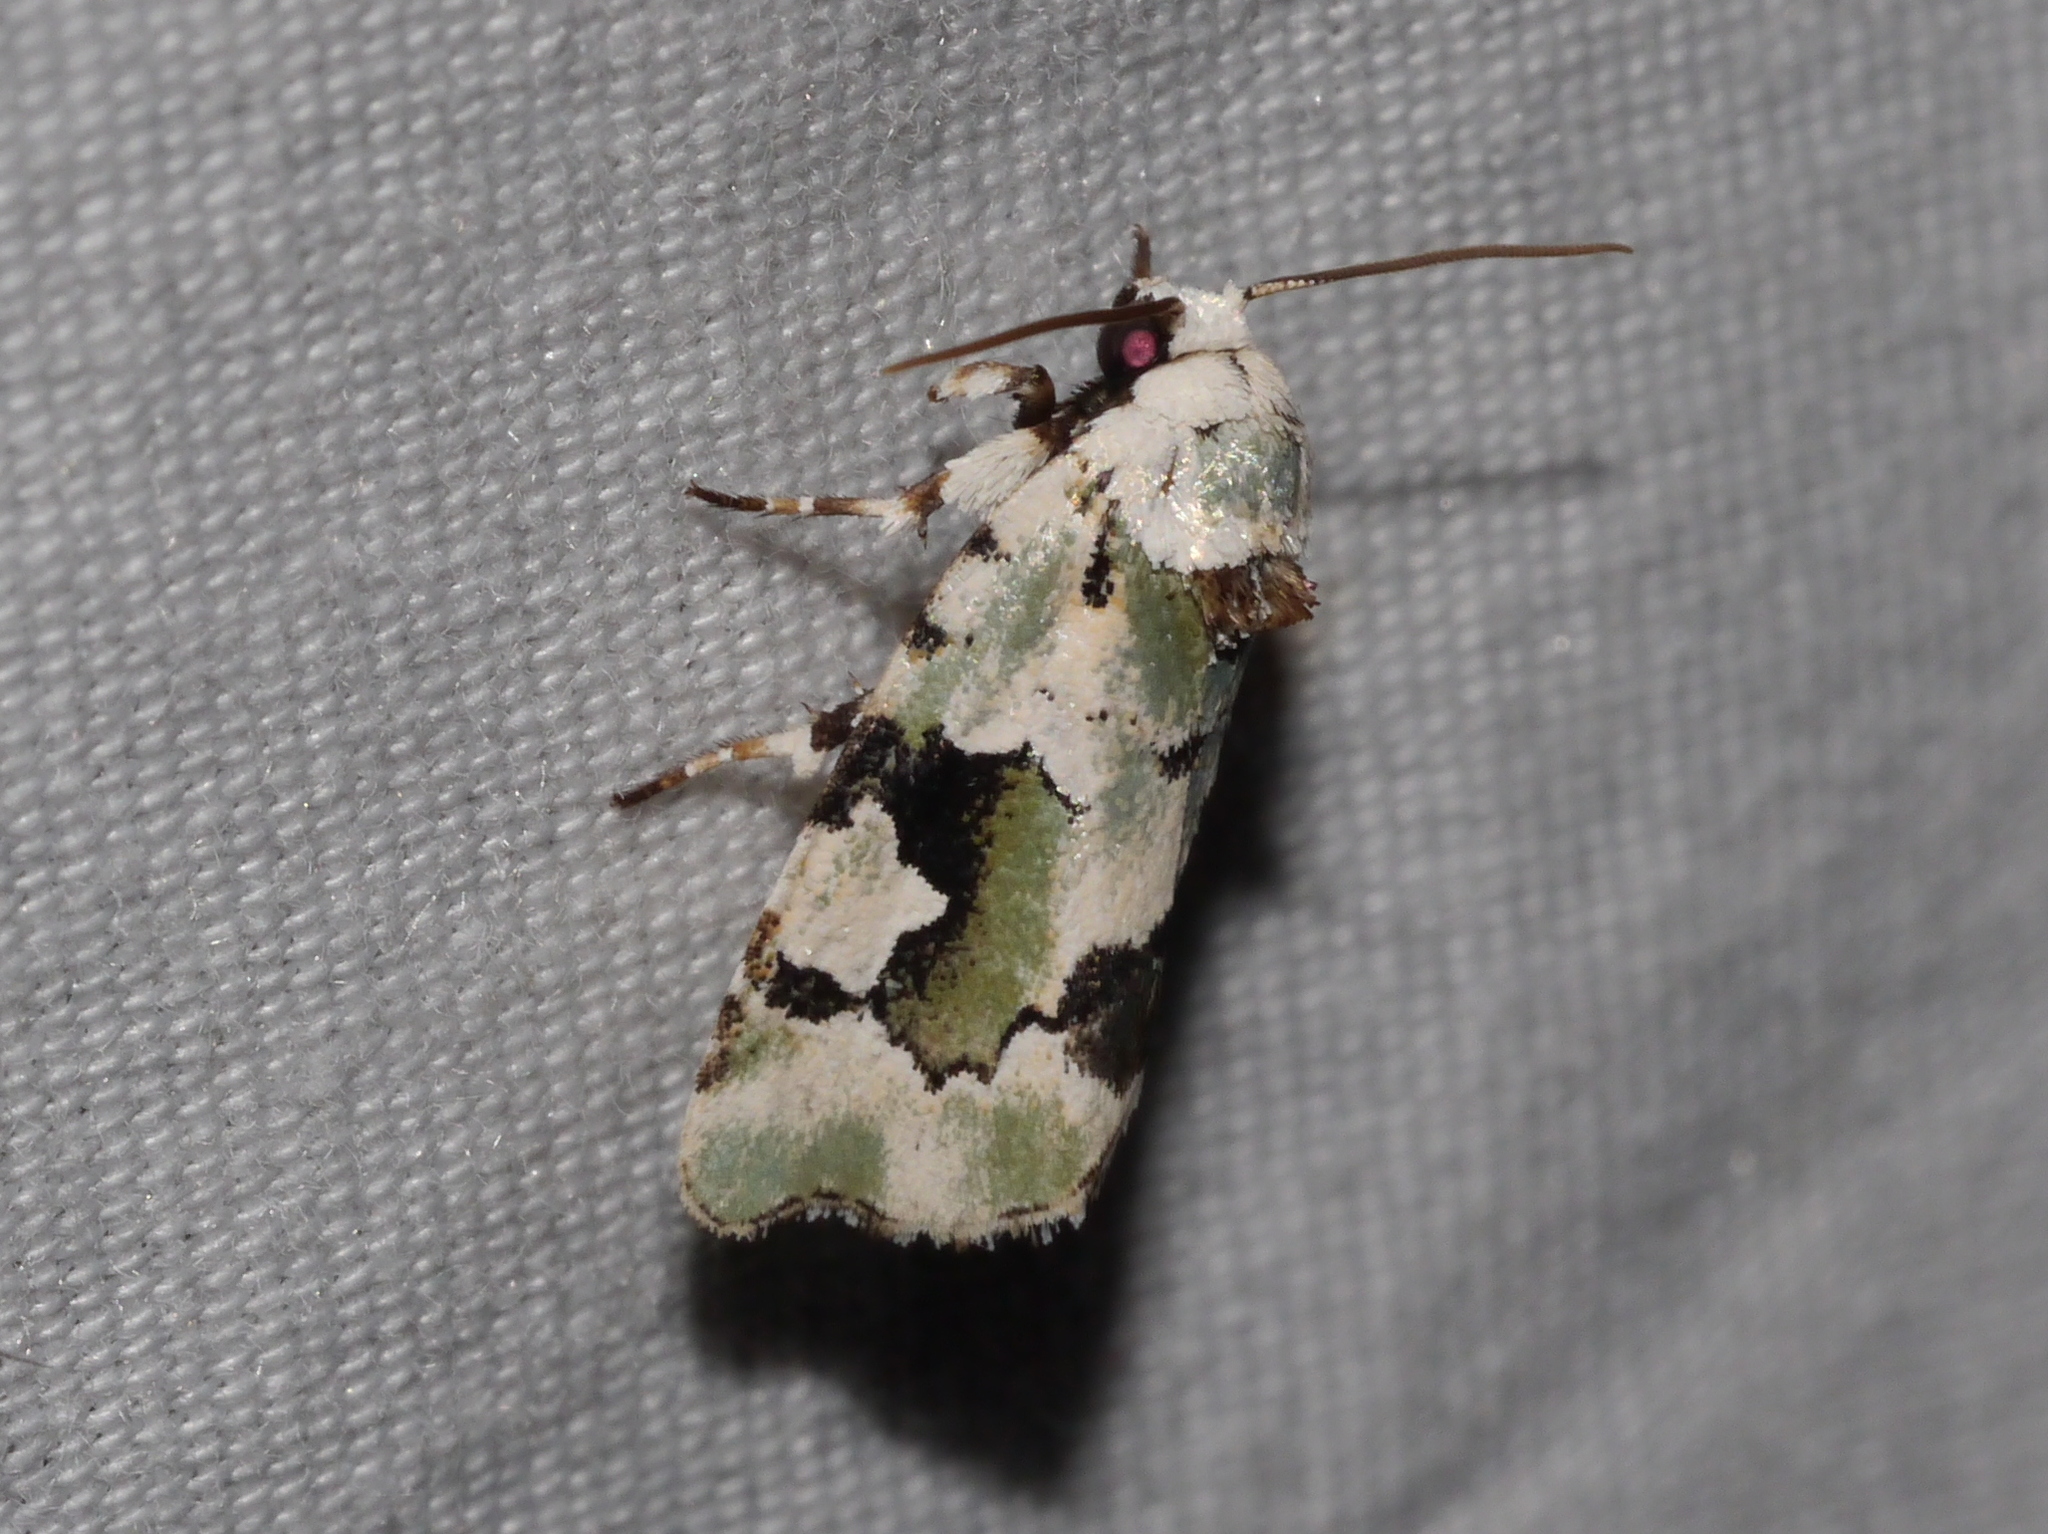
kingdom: Animalia
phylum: Arthropoda
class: Insecta
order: Lepidoptera
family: Noctuidae
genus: Emarginea
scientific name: Emarginea percara
